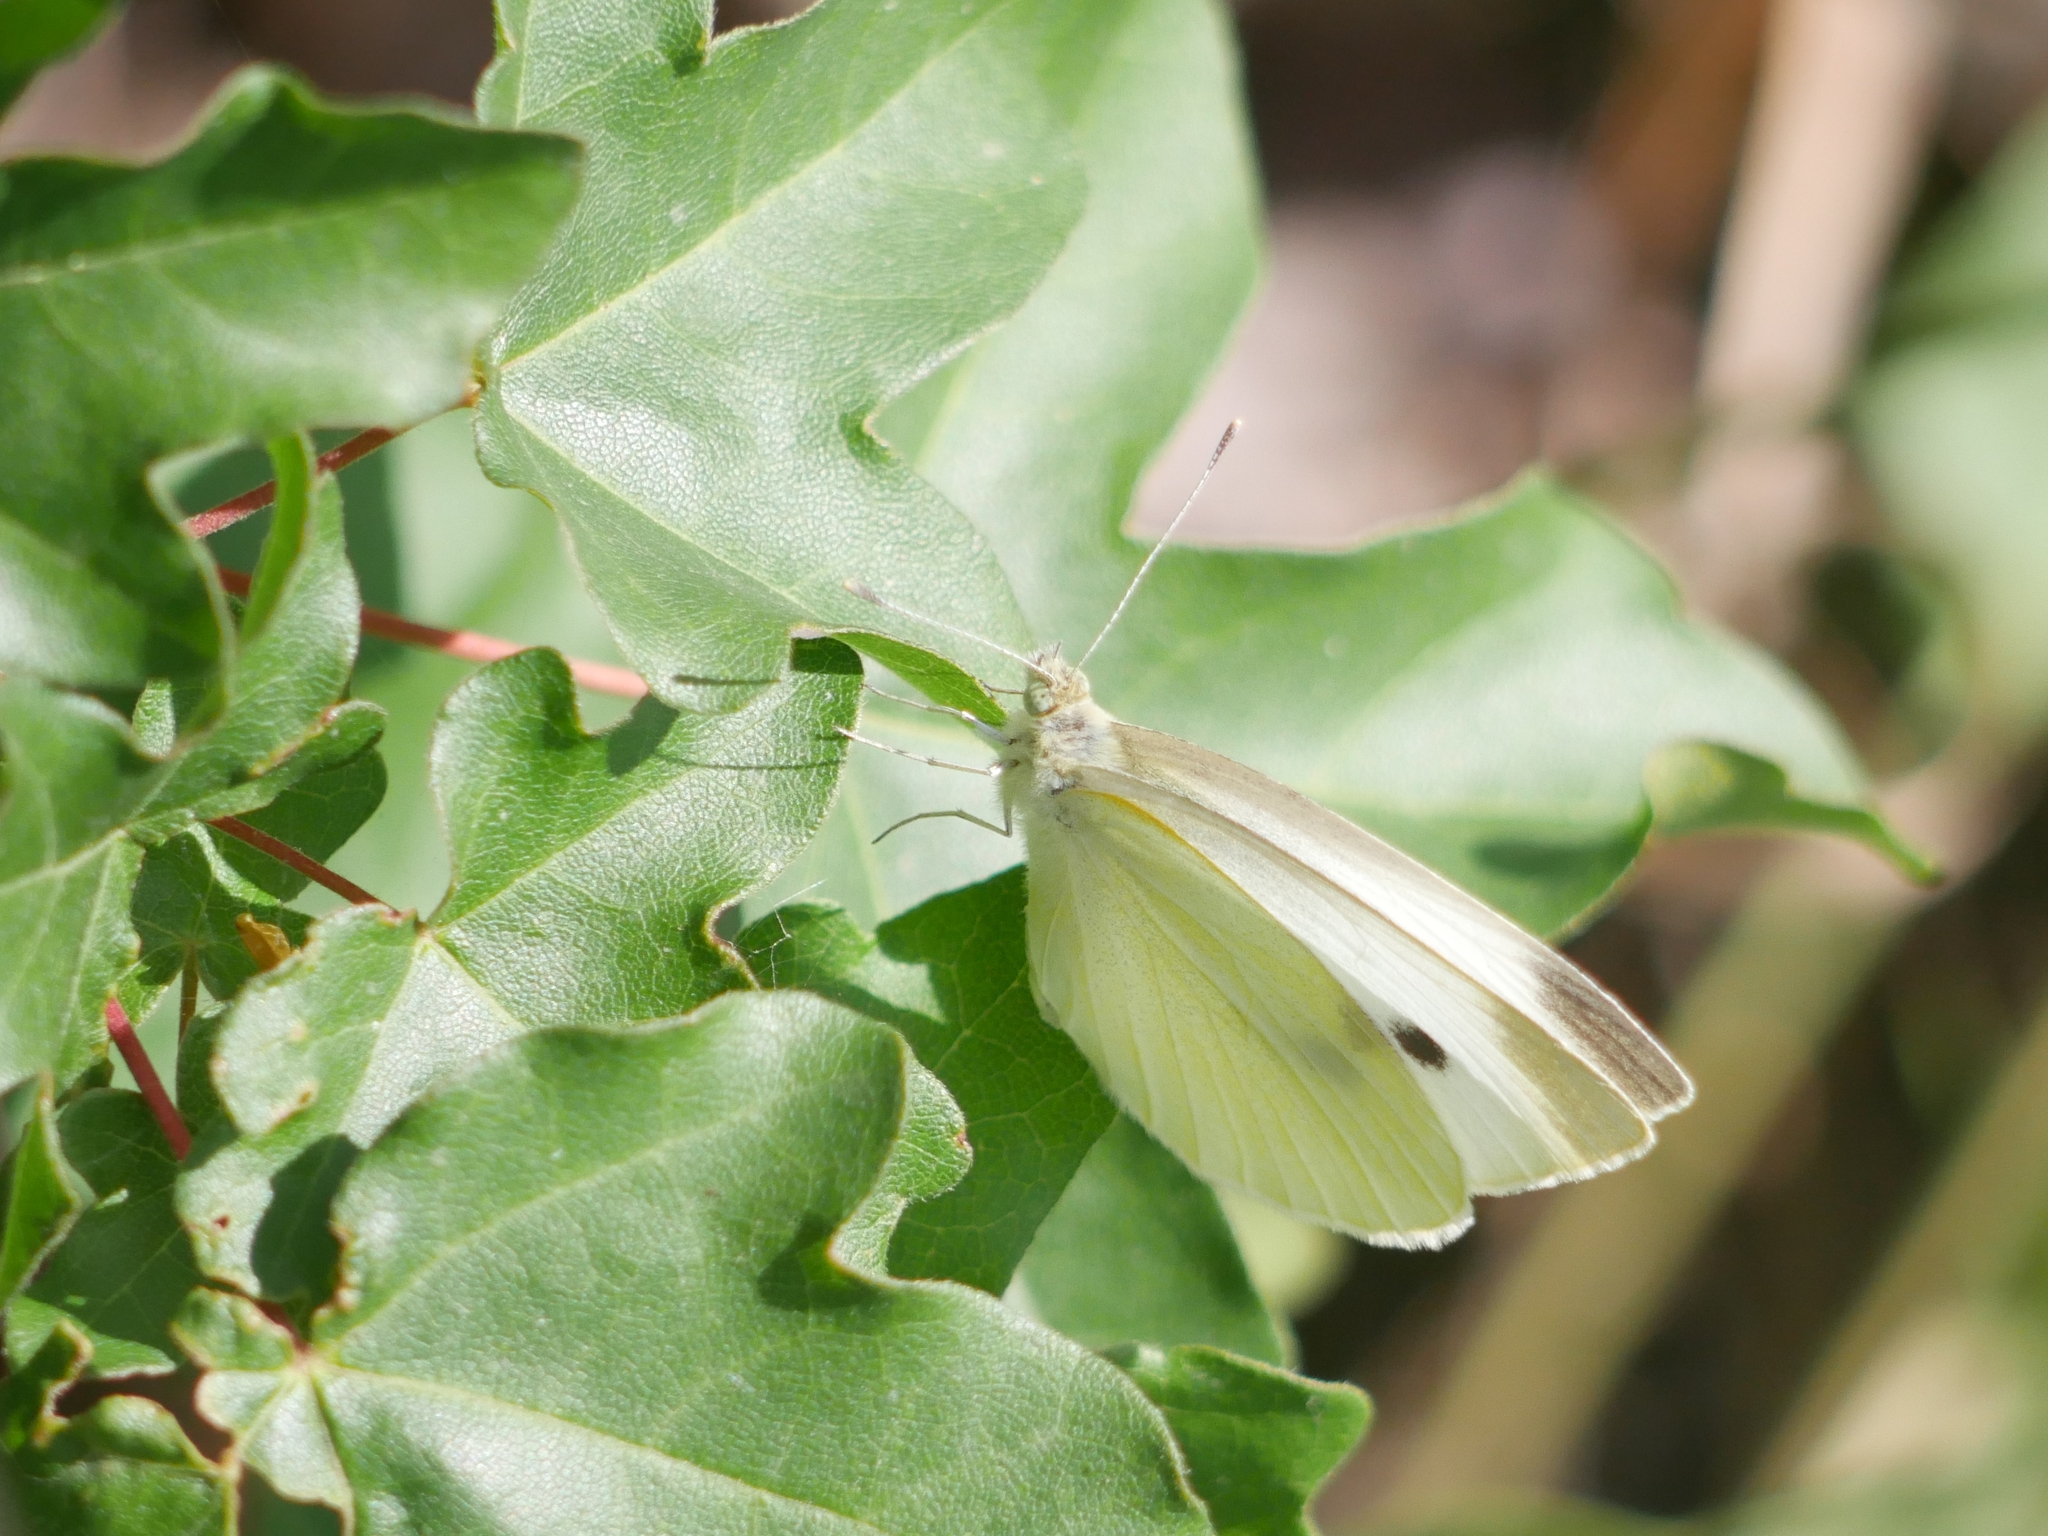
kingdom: Animalia
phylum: Arthropoda
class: Insecta
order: Lepidoptera
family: Pieridae
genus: Pieris
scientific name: Pieris rapae
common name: Small white
